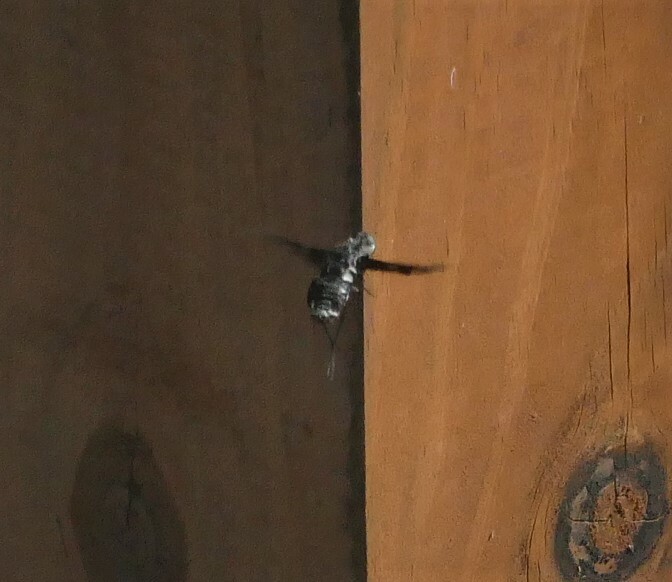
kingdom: Animalia
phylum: Arthropoda
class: Insecta
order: Diptera
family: Bombyliidae
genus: Xenox
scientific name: Xenox tigrinus
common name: Tiger bee fly
